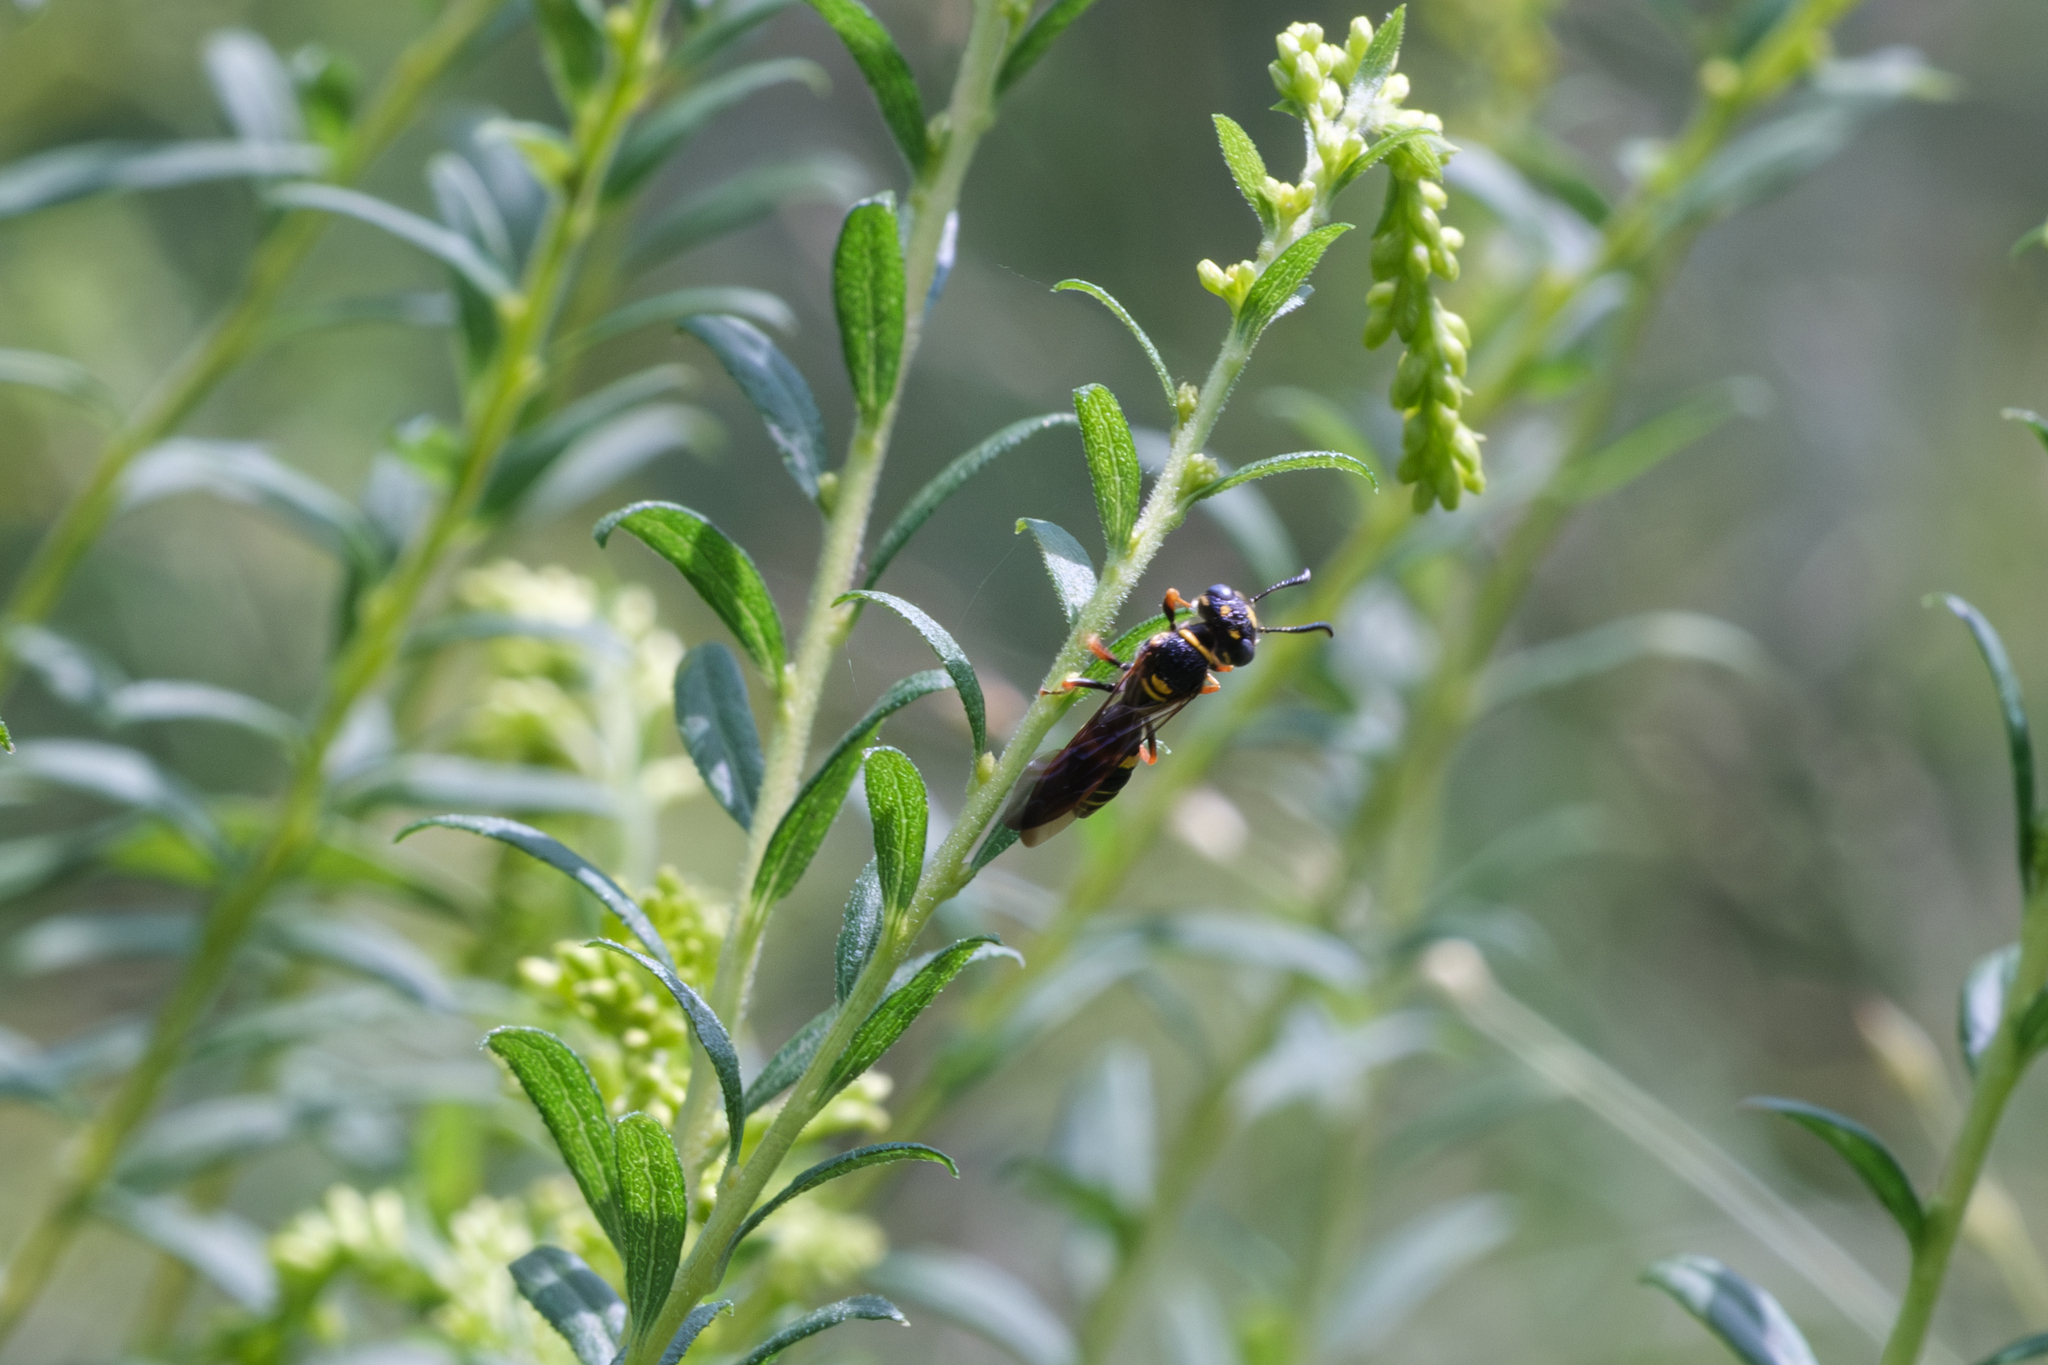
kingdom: Animalia
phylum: Arthropoda
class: Insecta
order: Hymenoptera
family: Crabronidae
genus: Philanthus
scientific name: Philanthus gibbosus
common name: Humped beewolf
